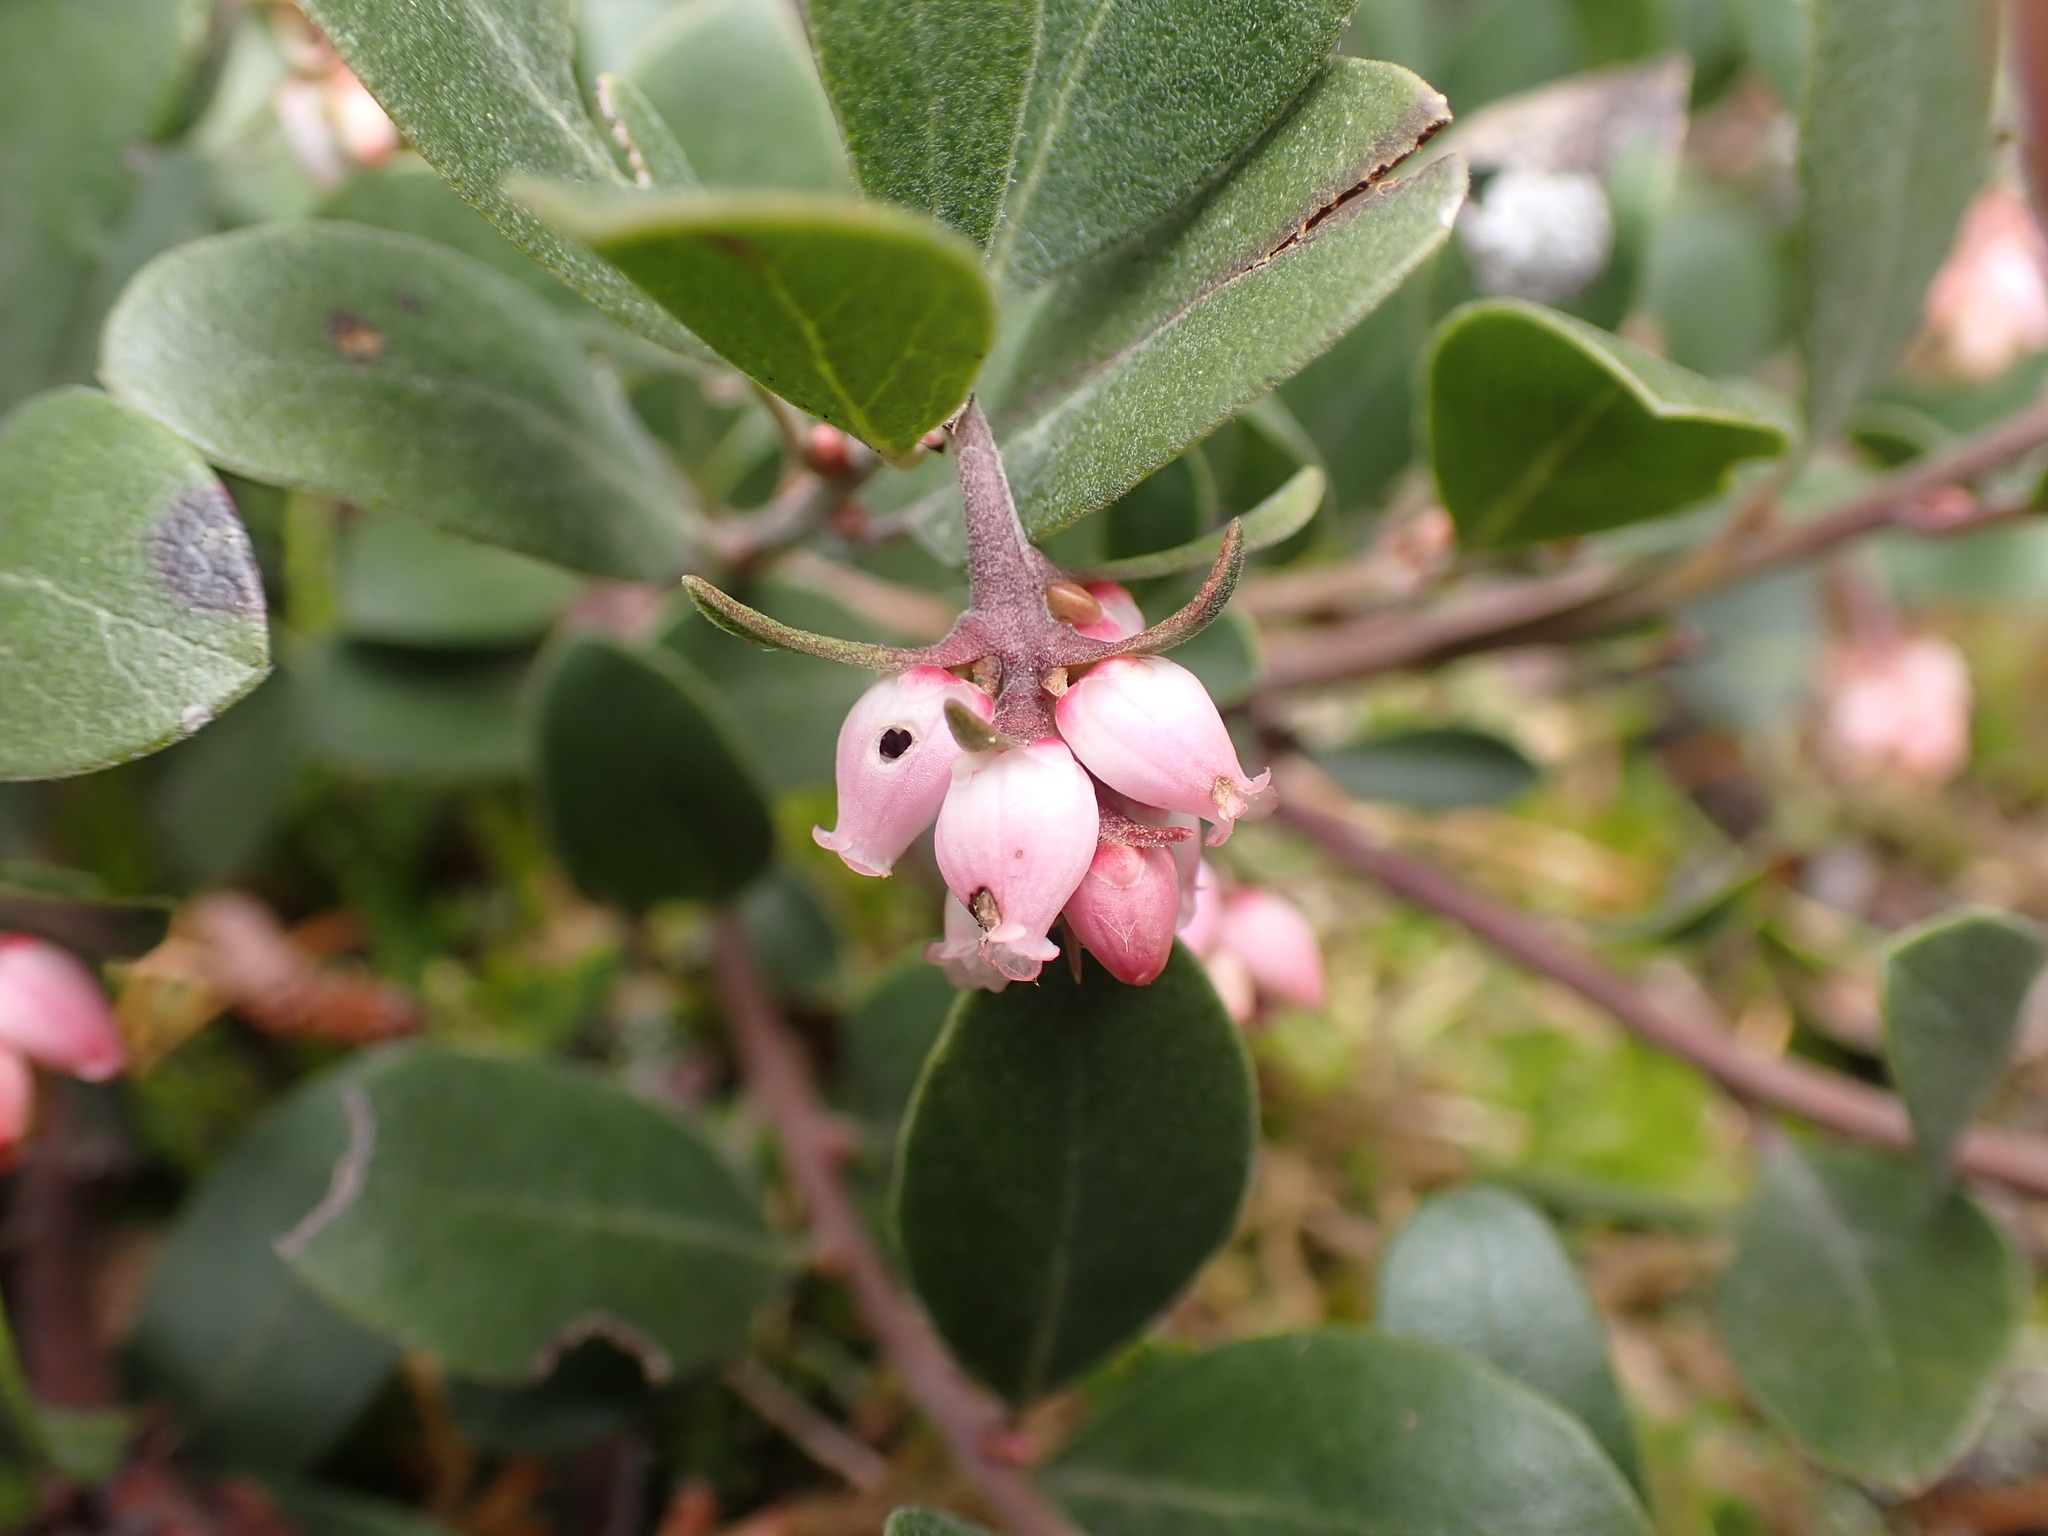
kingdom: Plantae
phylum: Tracheophyta
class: Magnoliopsida
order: Ericales
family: Ericaceae
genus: Arctostaphylos
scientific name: Arctostaphylos columbiana
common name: Bristly bearberry
